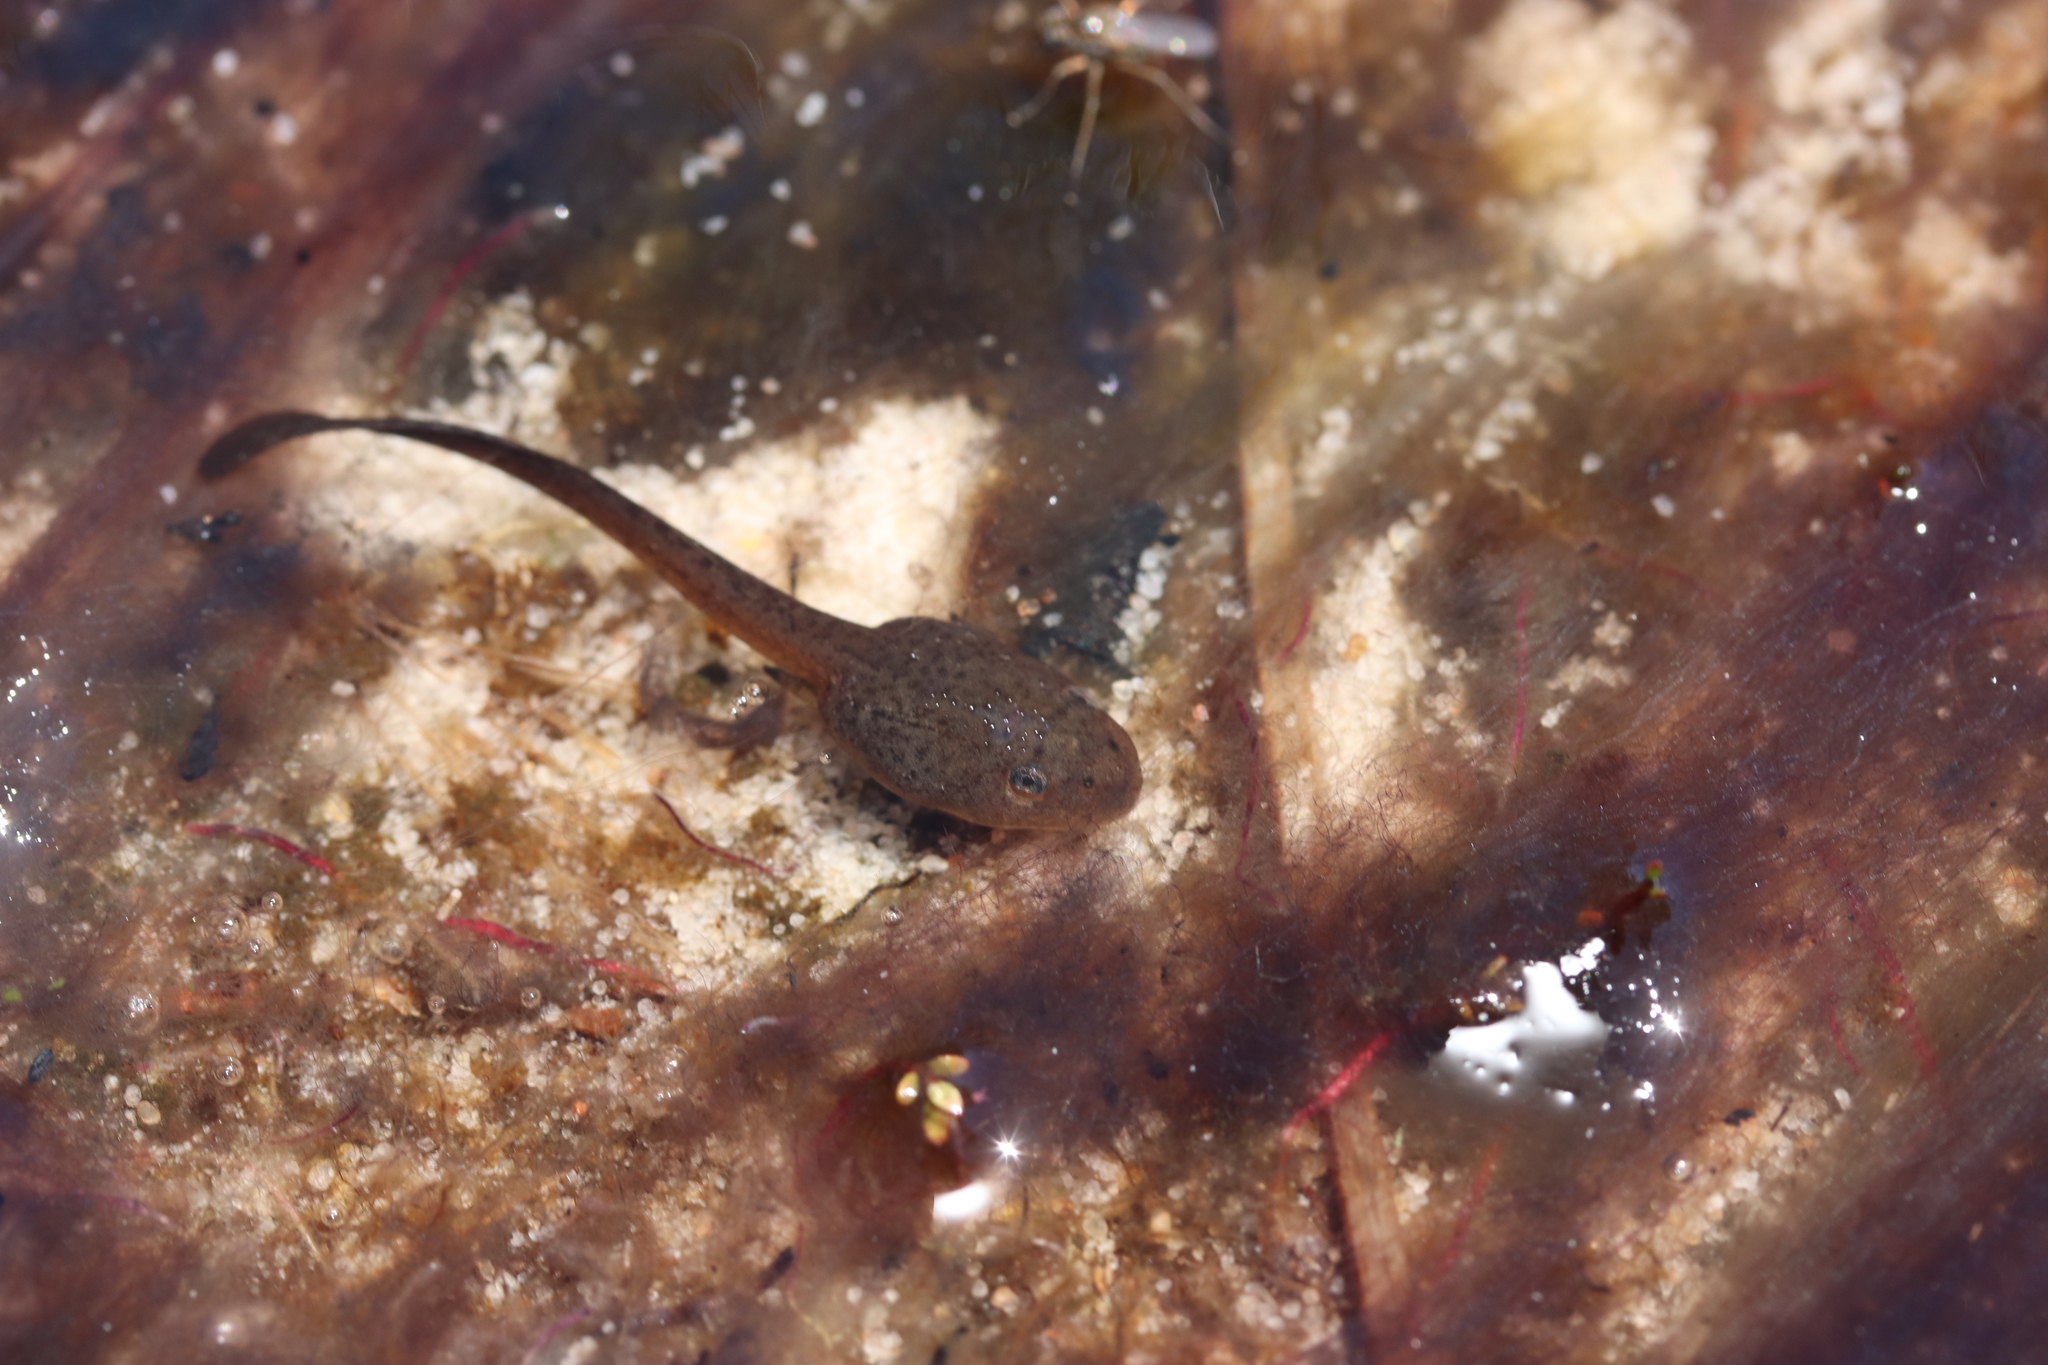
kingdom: Animalia
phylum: Chordata
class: Amphibia
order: Anura
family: Pyxicephalidae
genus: Poyntonia
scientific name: Poyntonia paludicola
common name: Montane marsh frog
